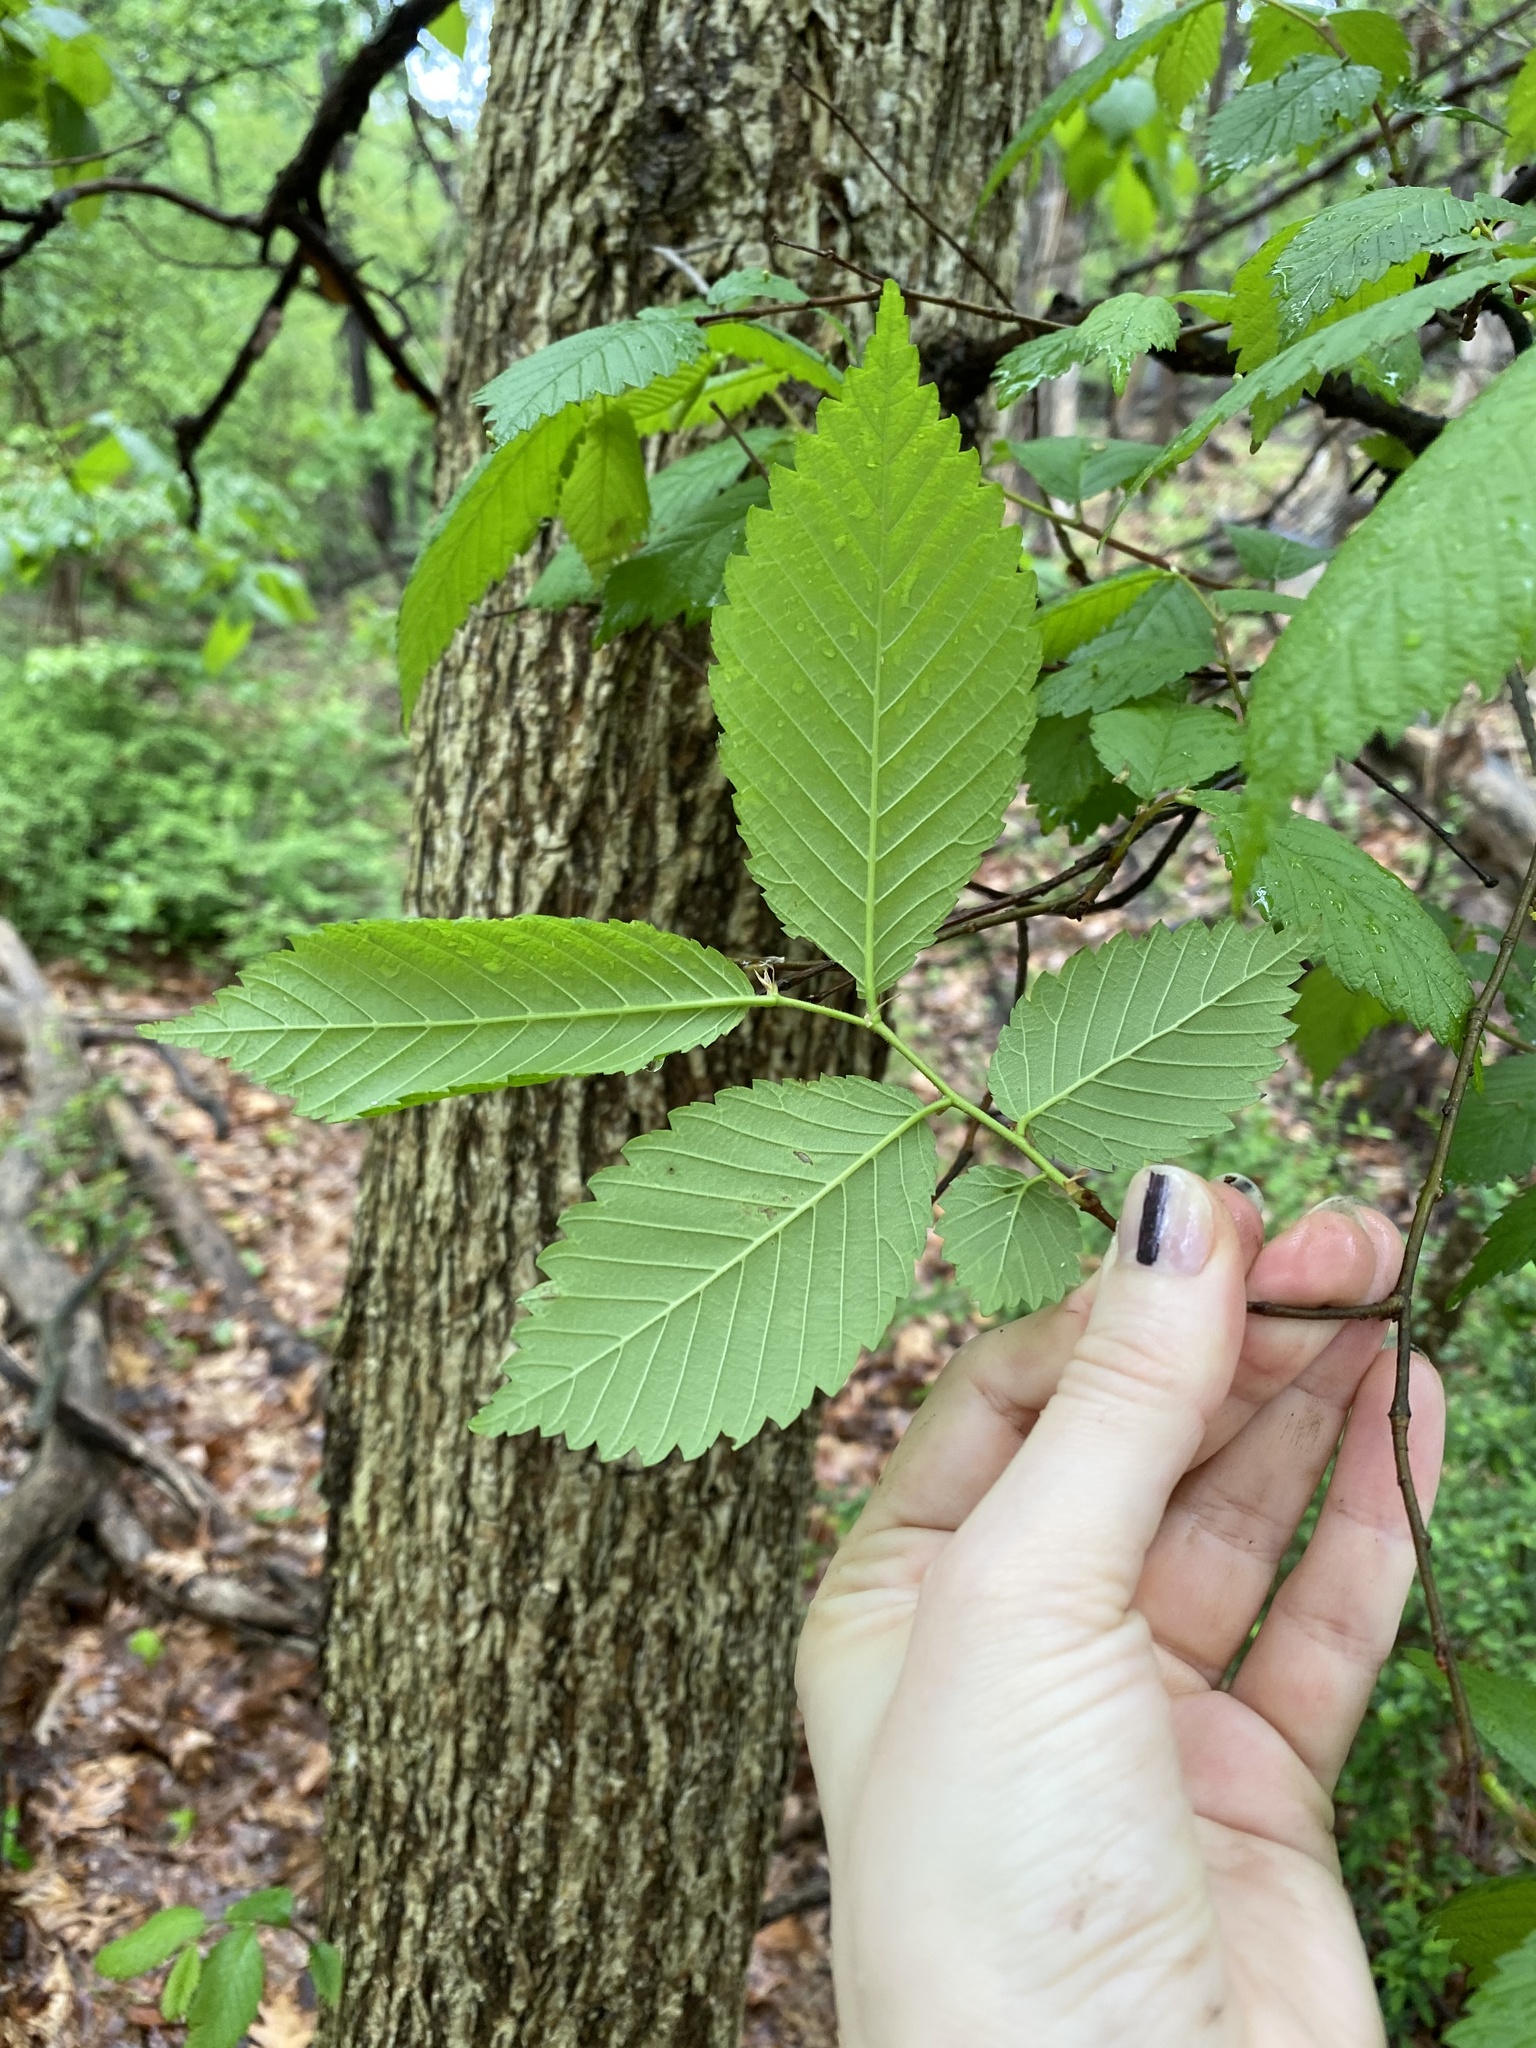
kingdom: Plantae
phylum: Tracheophyta
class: Magnoliopsida
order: Rosales
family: Ulmaceae
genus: Ulmus
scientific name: Ulmus americana
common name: American elm
